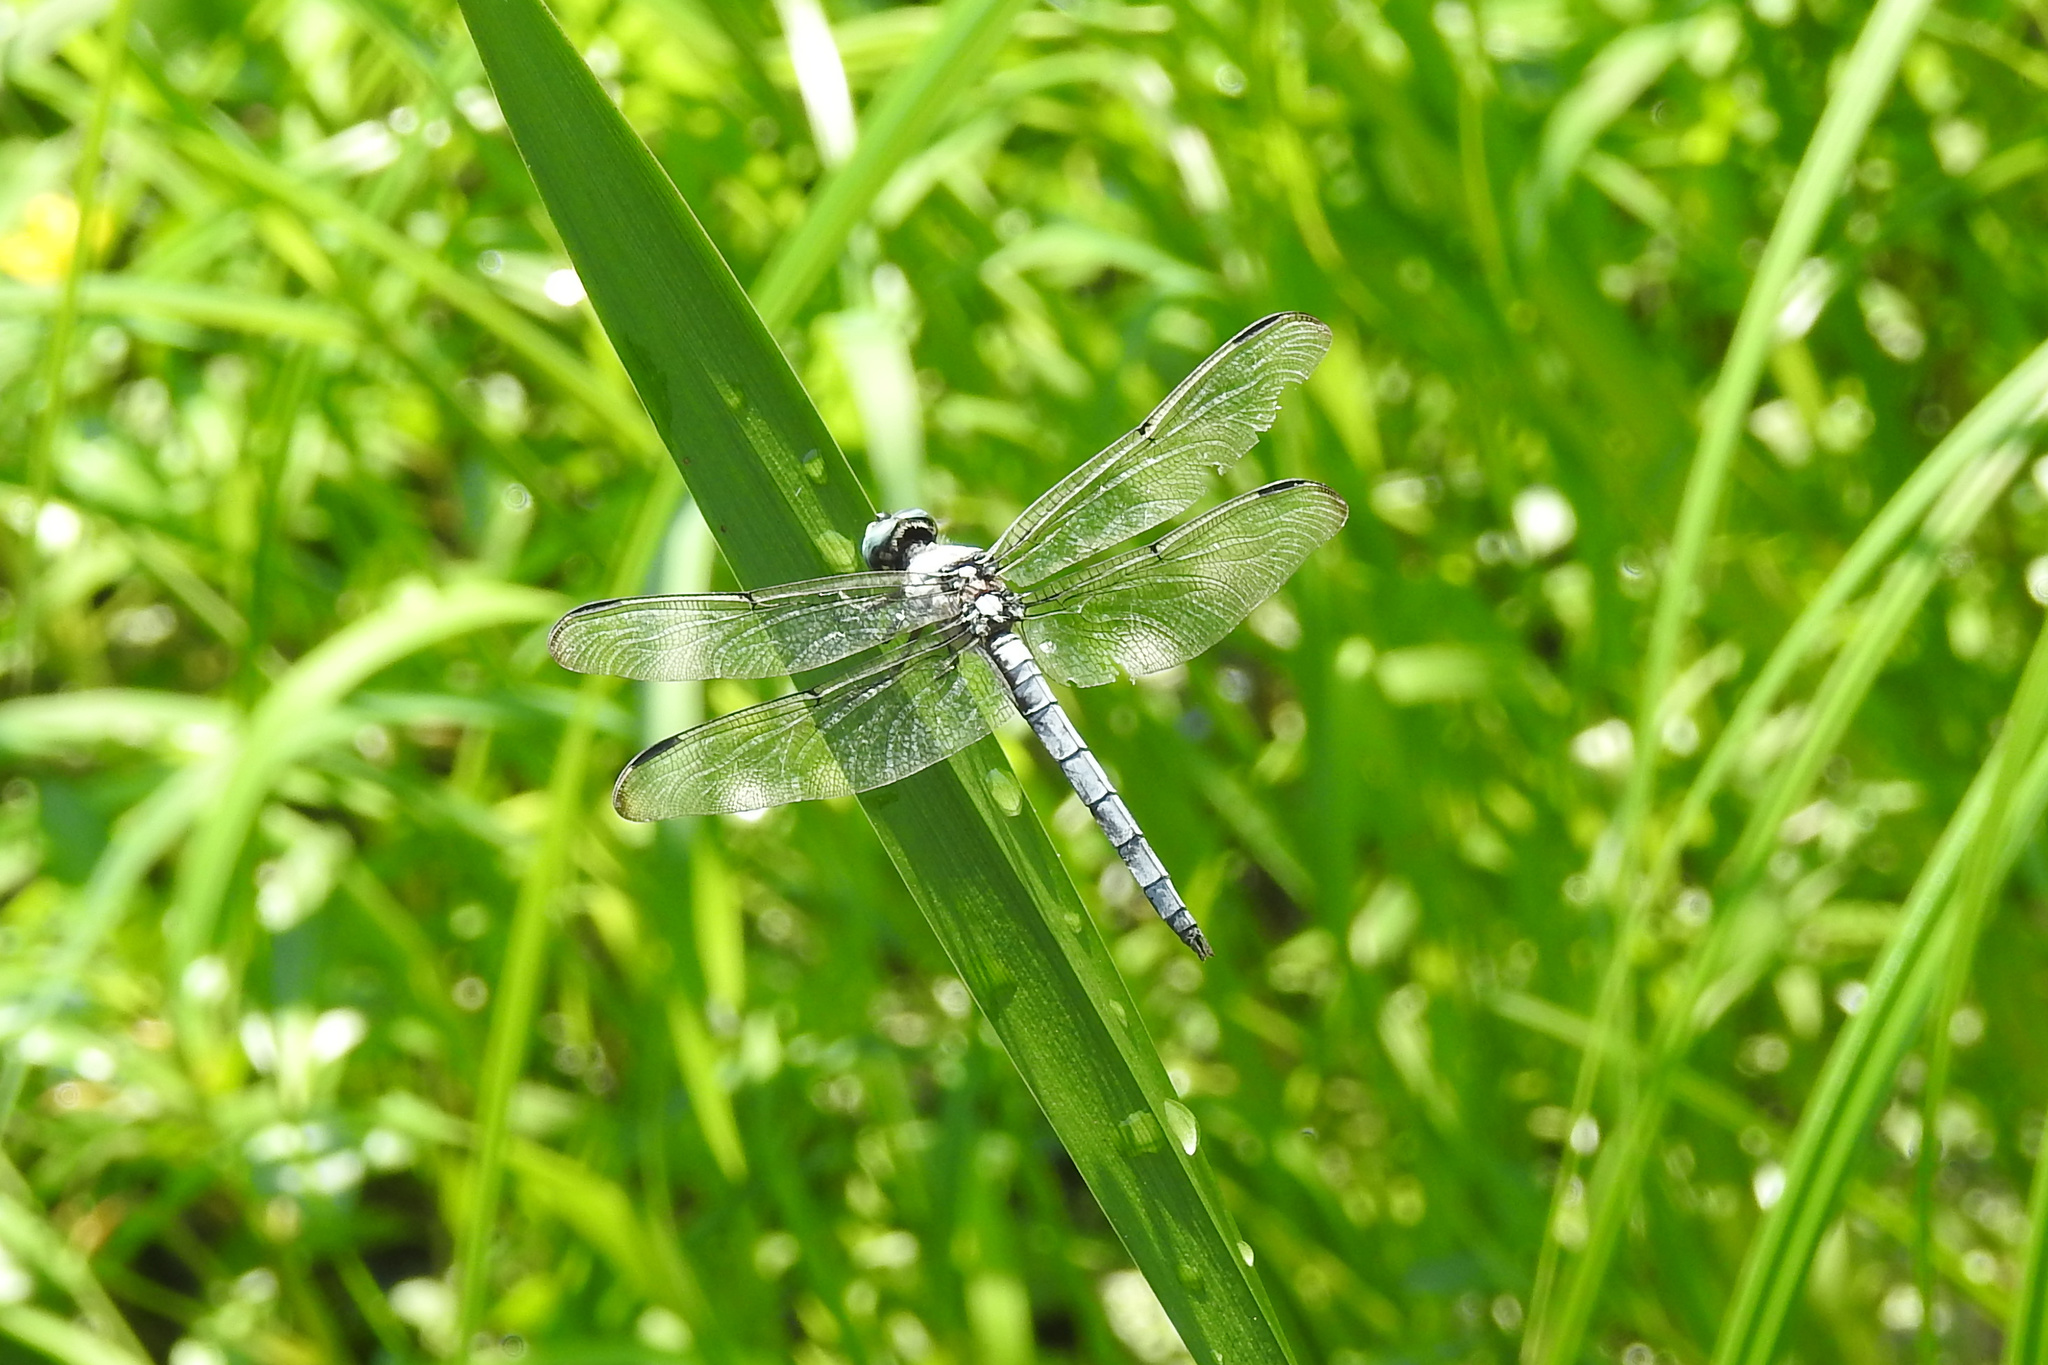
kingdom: Animalia
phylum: Arthropoda
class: Insecta
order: Odonata
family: Libellulidae
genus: Libellula
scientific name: Libellula vibrans
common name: Great blue skimmer
